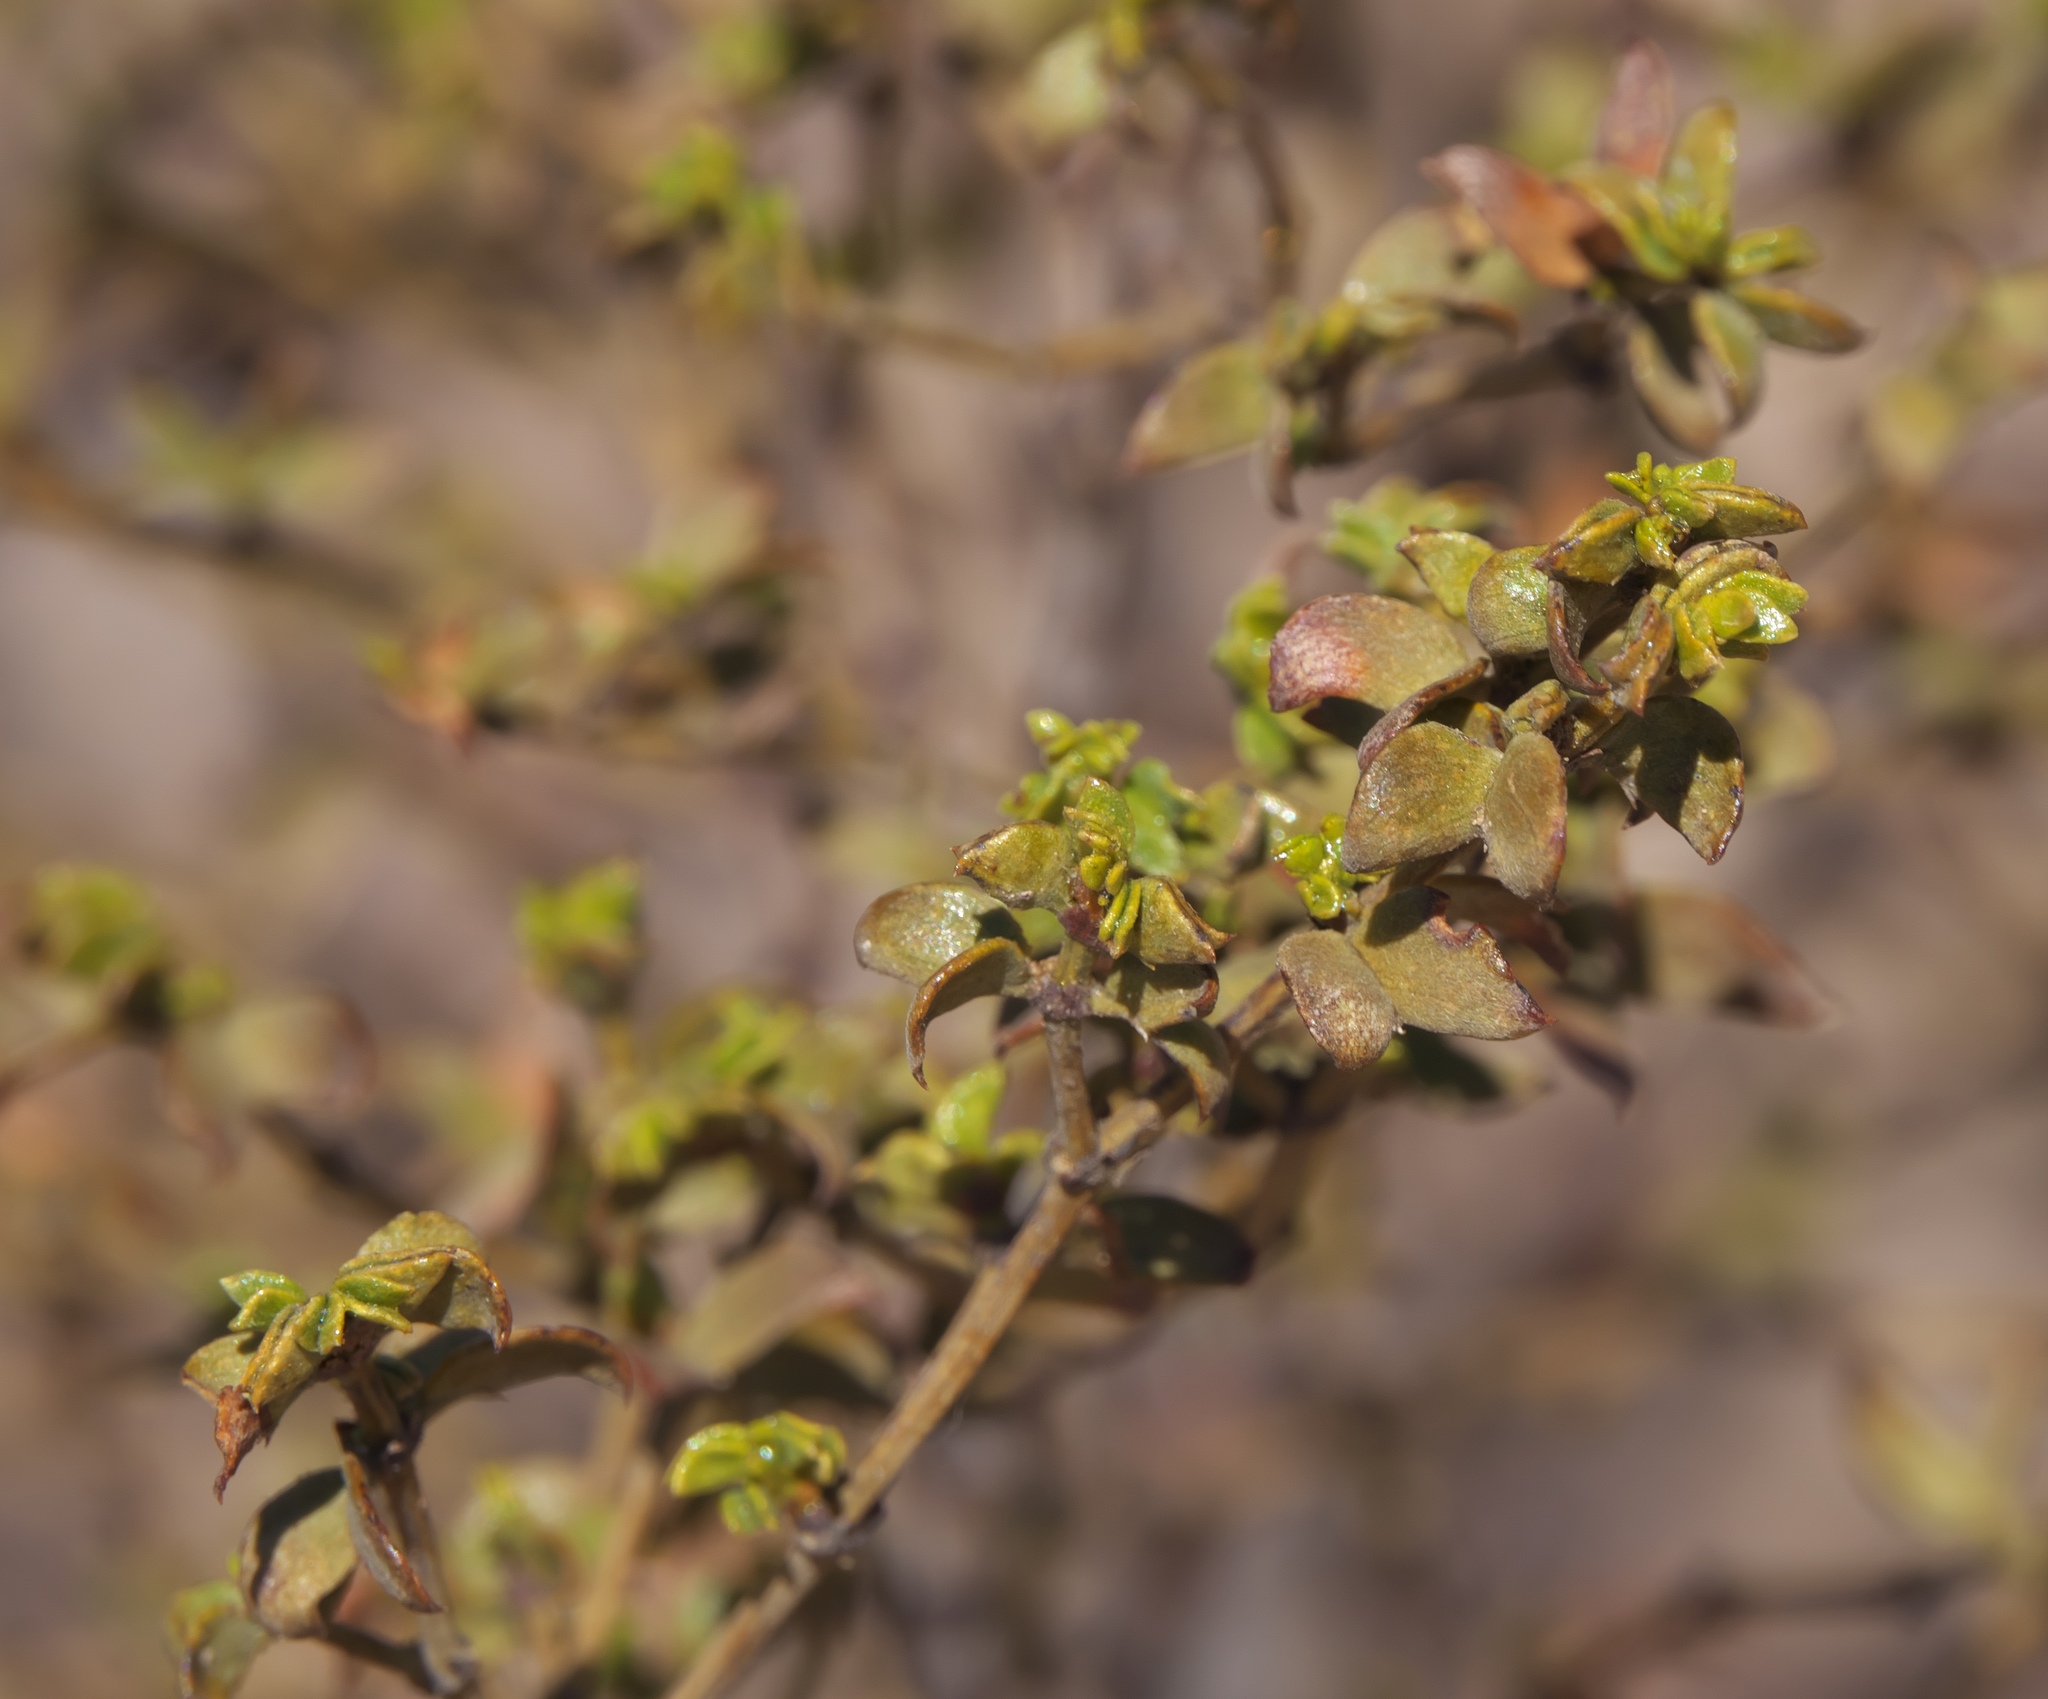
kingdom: Plantae
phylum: Tracheophyta
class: Magnoliopsida
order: Zygophyllales
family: Zygophyllaceae
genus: Larrea
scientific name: Larrea tridentata
